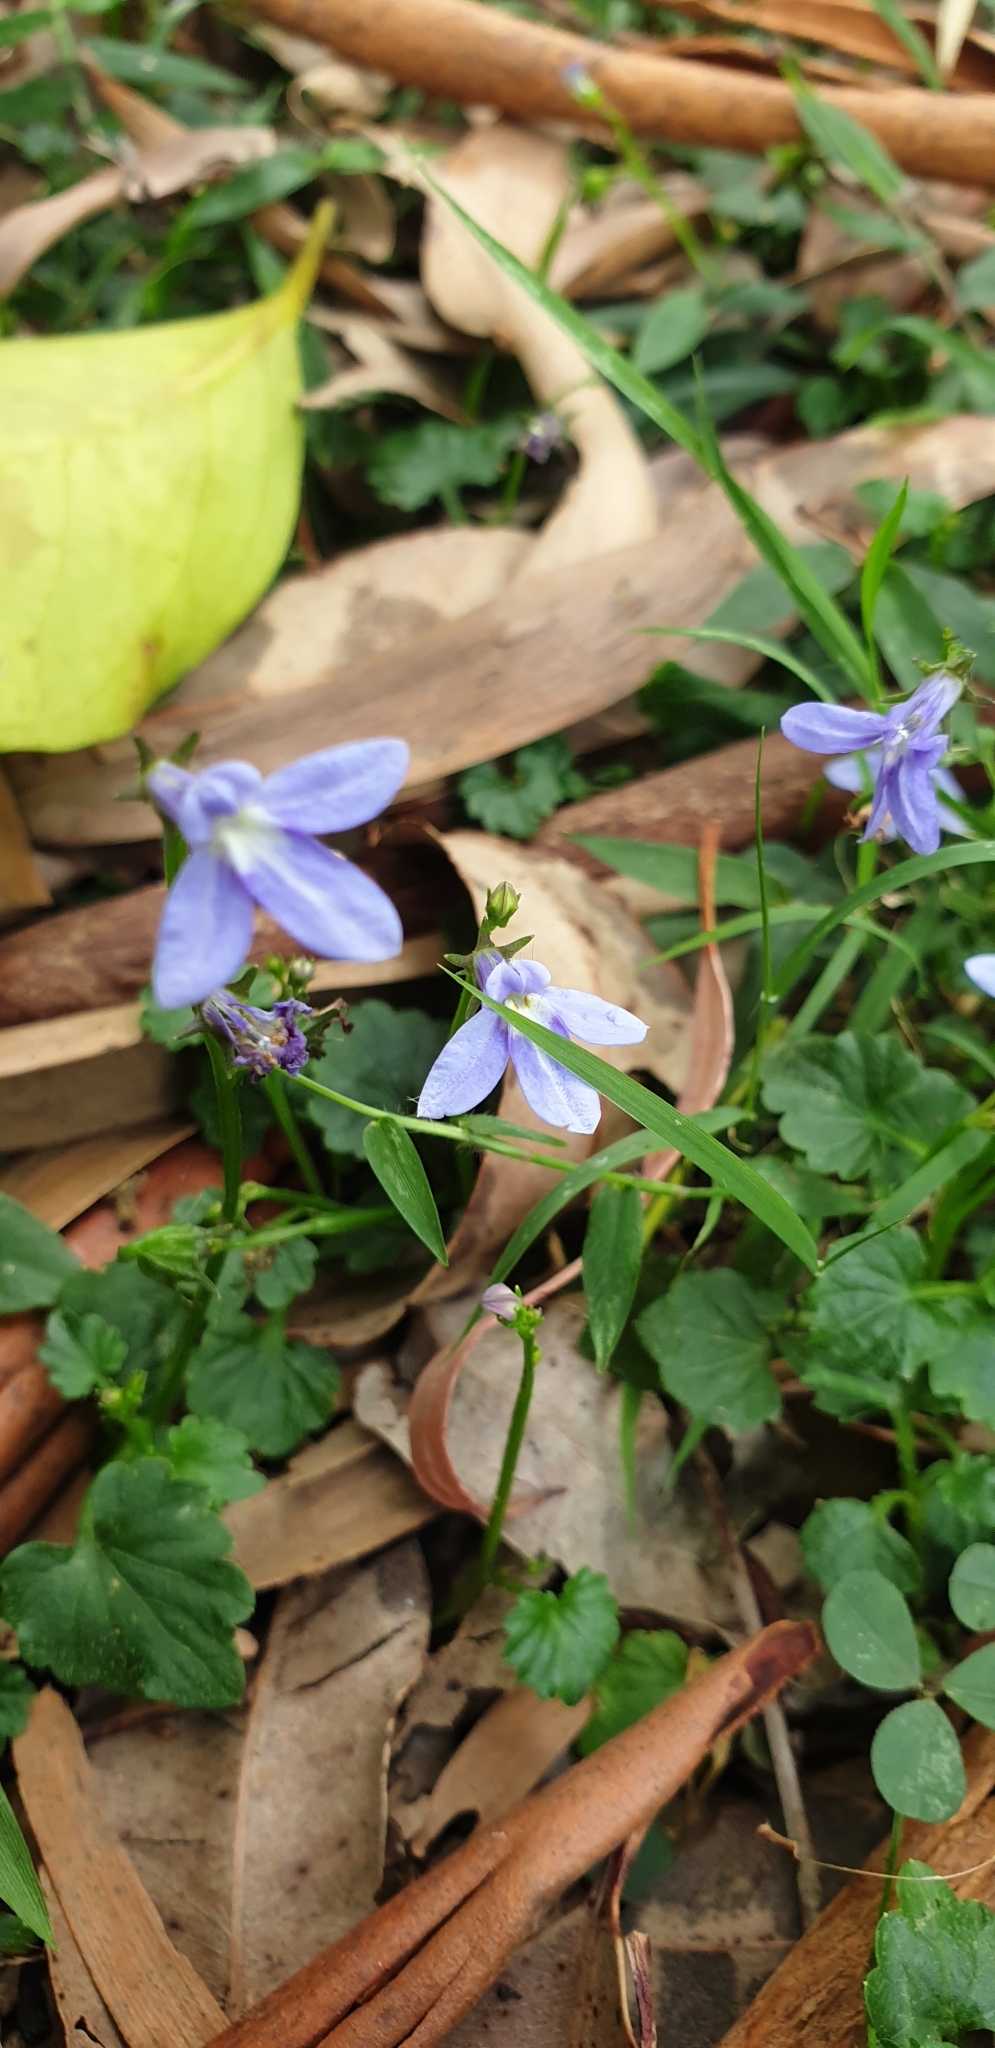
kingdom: Plantae
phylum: Tracheophyta
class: Magnoliopsida
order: Asterales
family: Campanulaceae
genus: Lobelia
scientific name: Lobelia trigonocaulis
